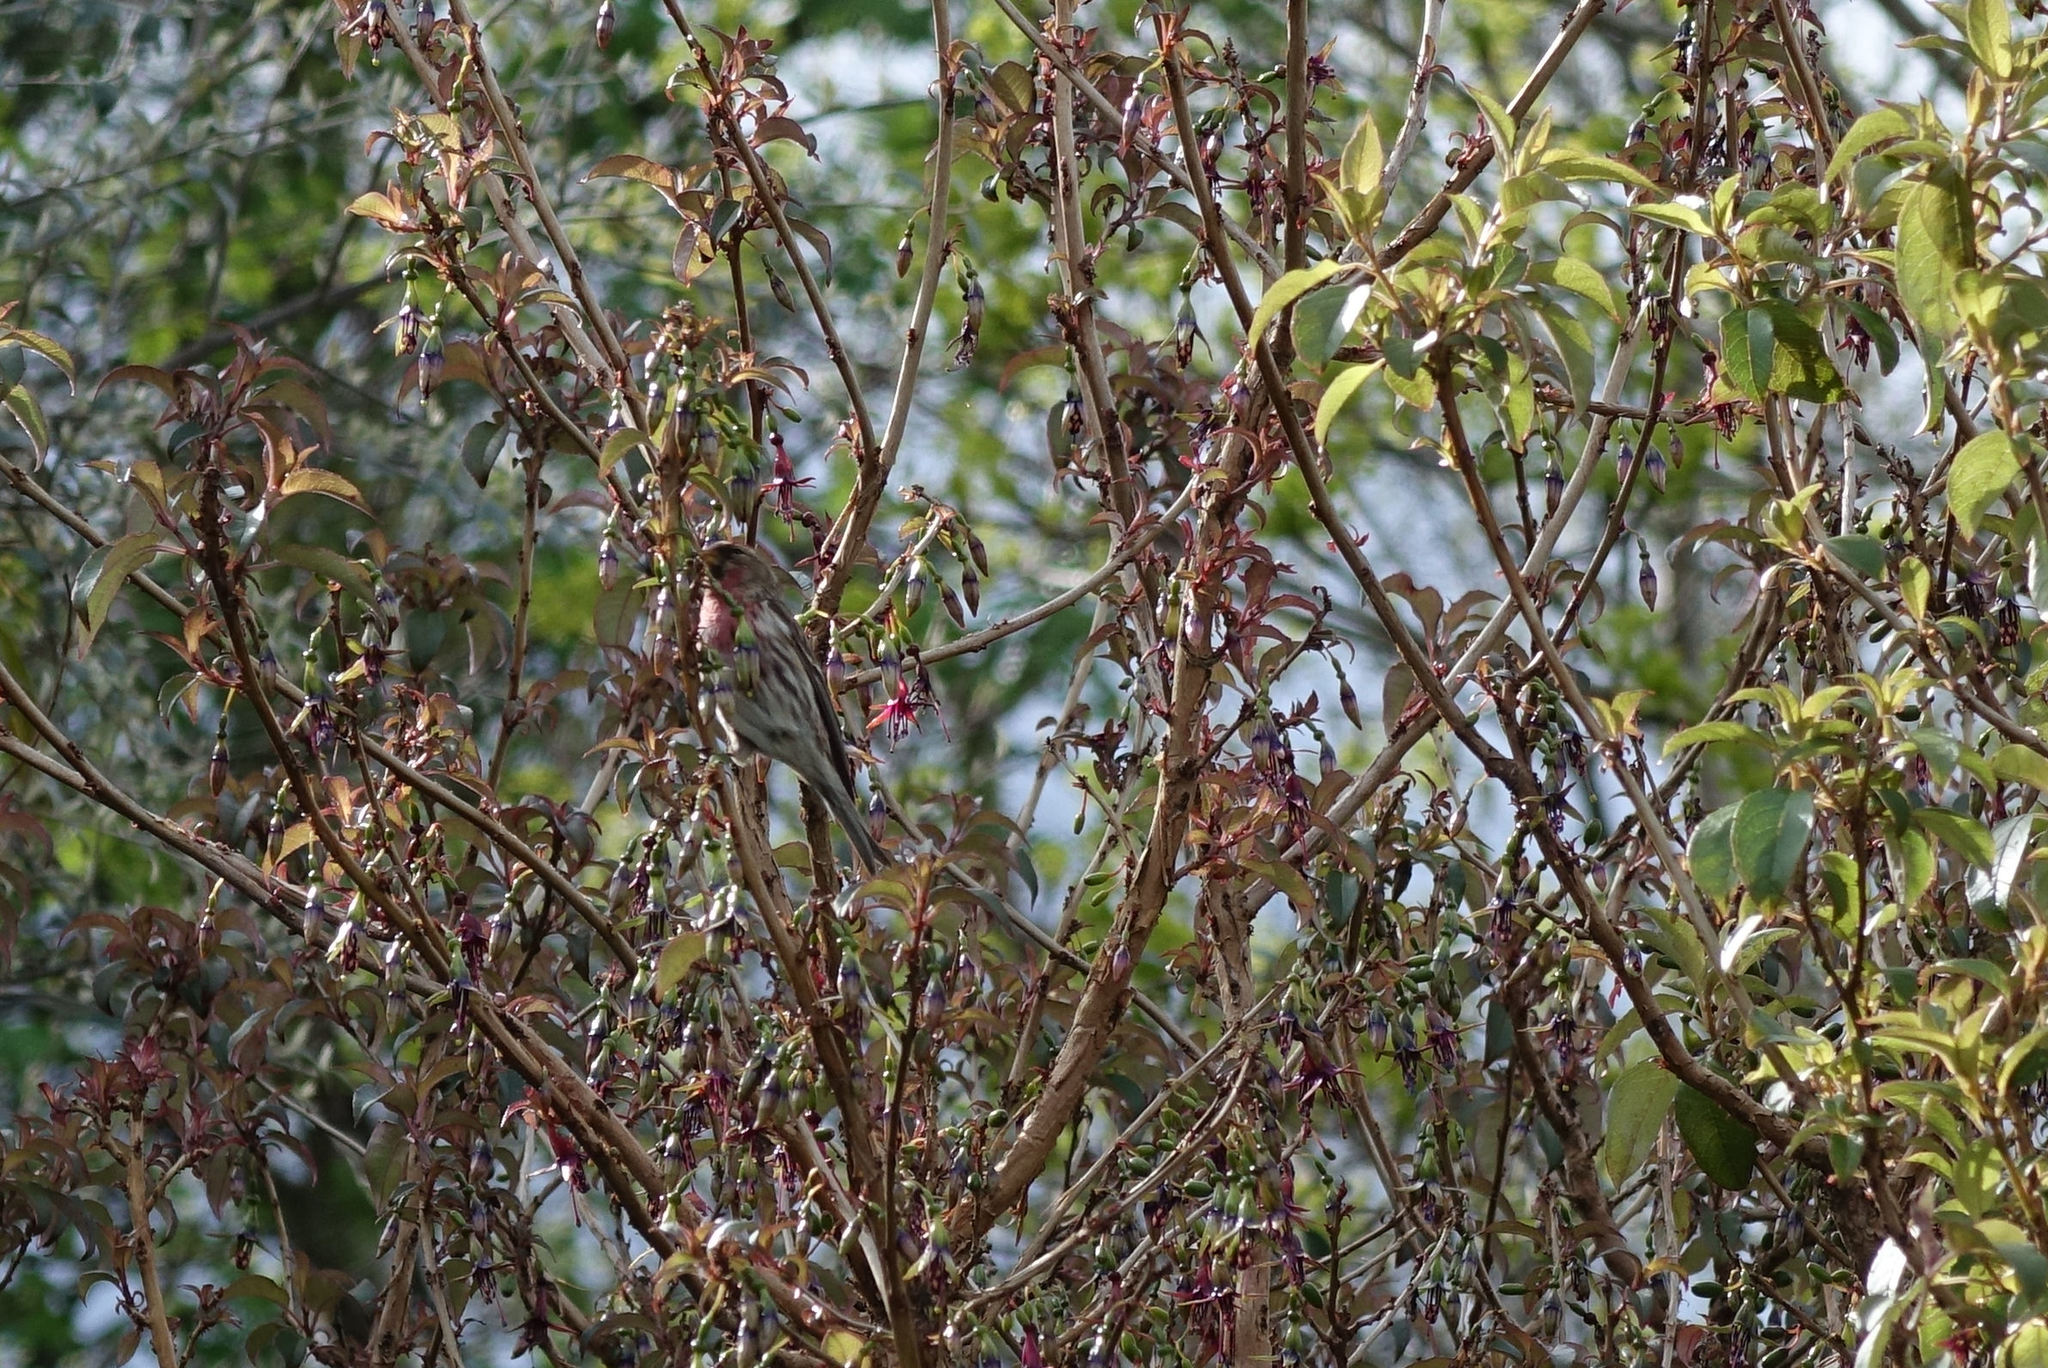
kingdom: Animalia
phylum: Chordata
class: Aves
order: Passeriformes
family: Fringillidae
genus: Acanthis
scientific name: Acanthis flammea
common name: Common redpoll
